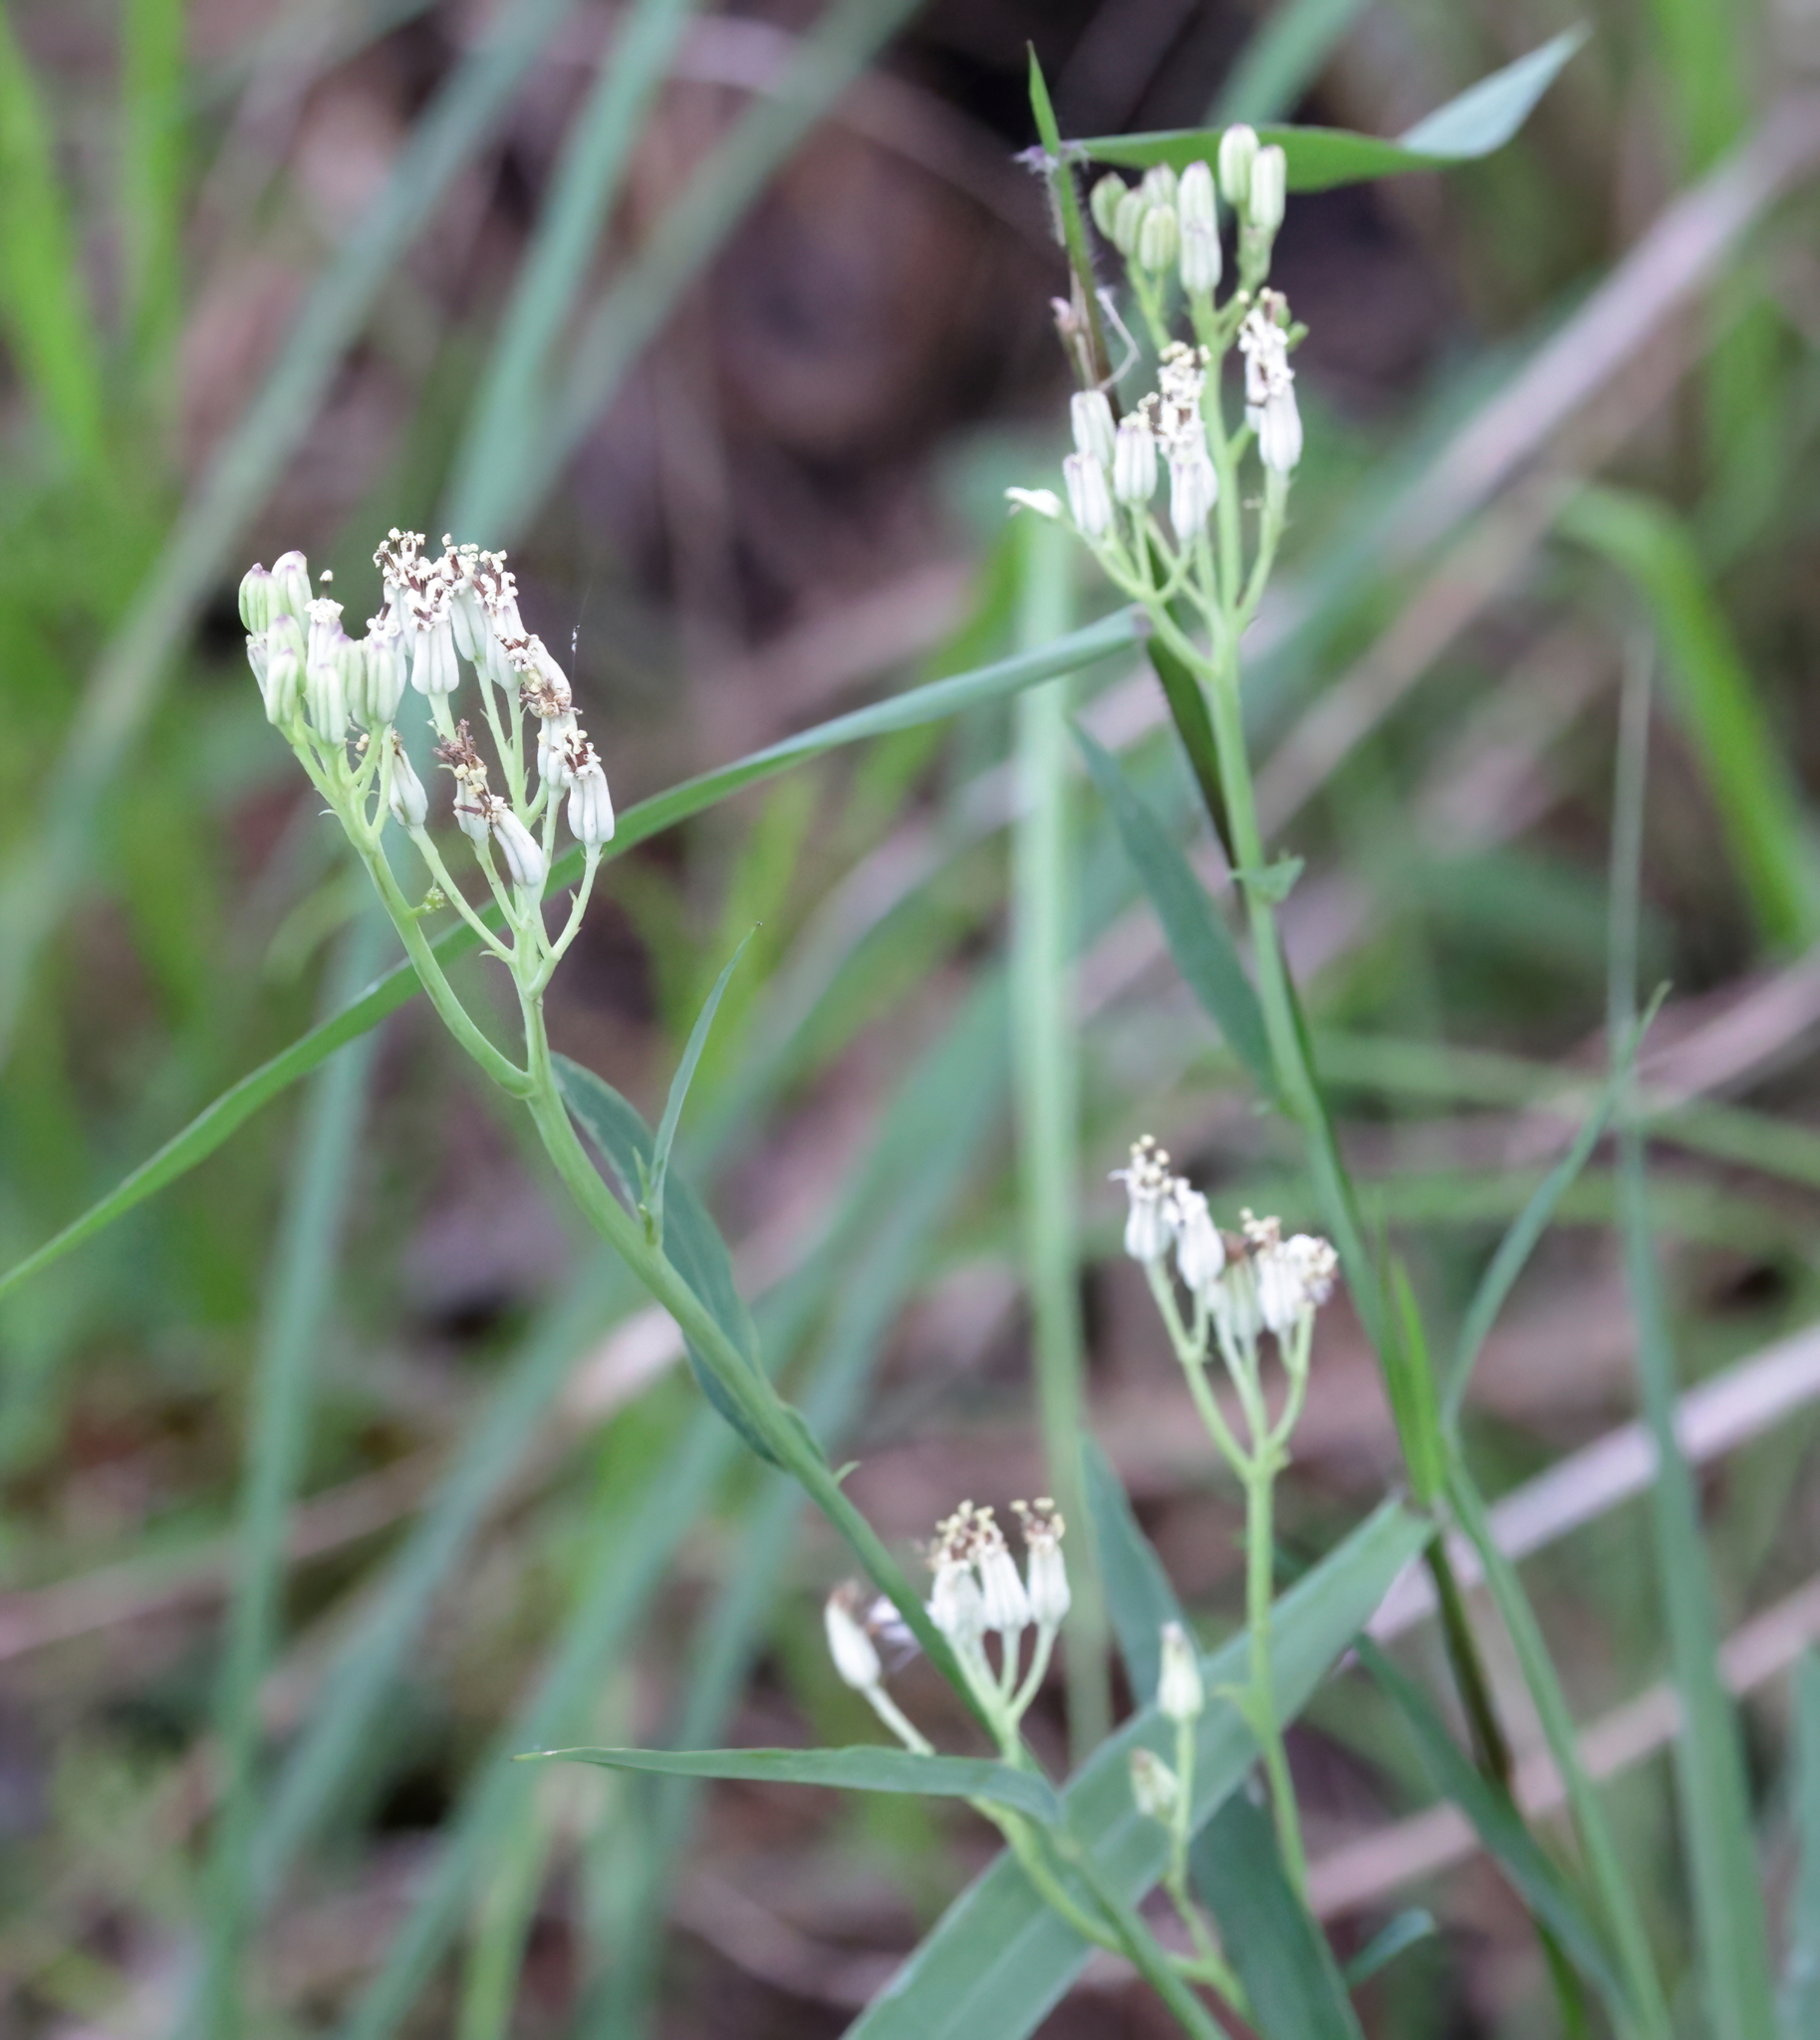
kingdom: Plantae
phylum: Tracheophyta
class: Magnoliopsida
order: Asterales
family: Asteraceae
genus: Arnoglossum
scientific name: Arnoglossum ovatum
